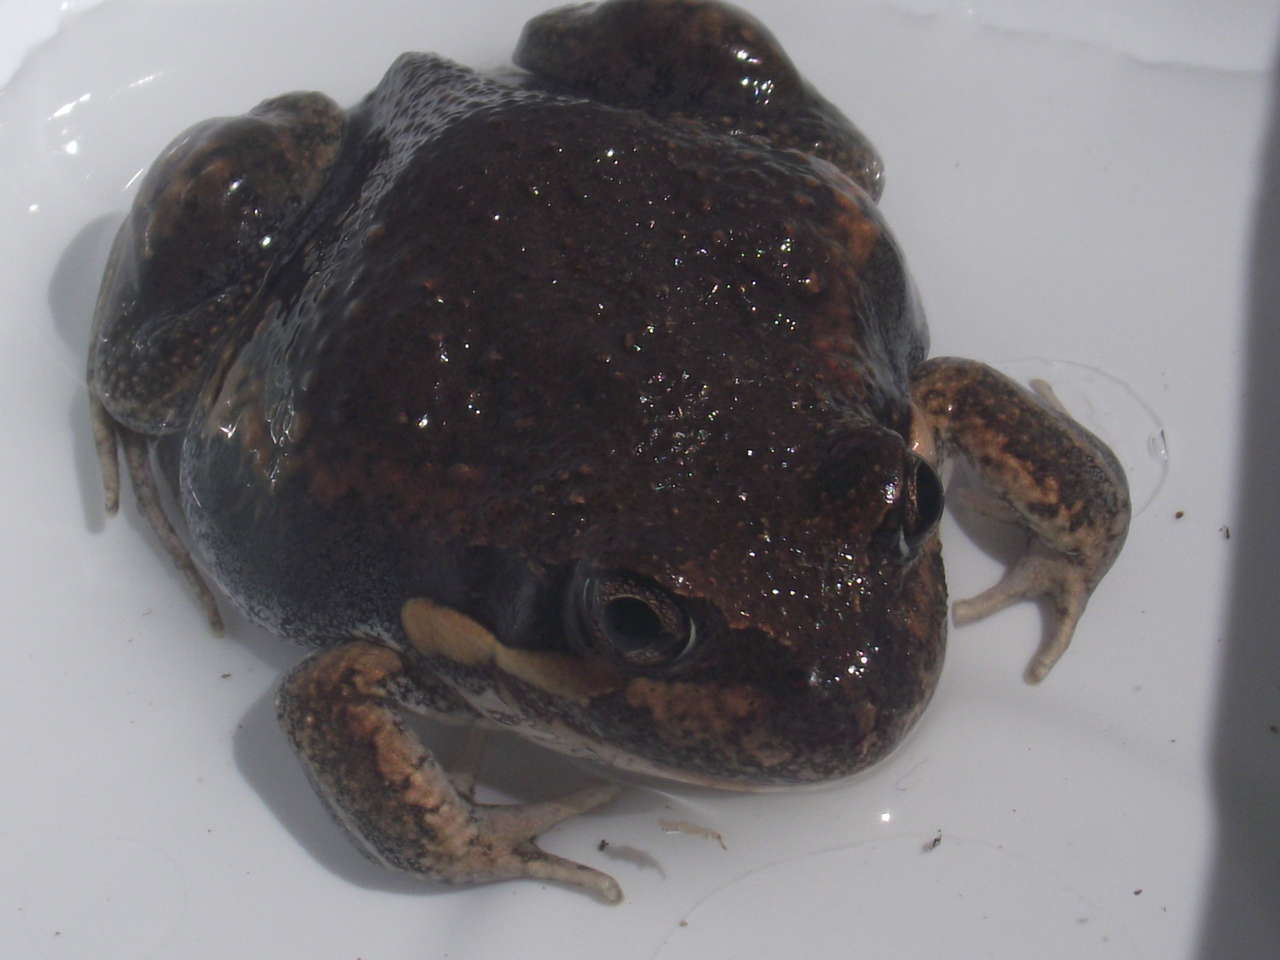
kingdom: Animalia
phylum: Chordata
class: Amphibia
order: Anura
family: Limnodynastidae
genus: Limnodynastes
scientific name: Limnodynastes dumerilii
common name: Banjo frog
